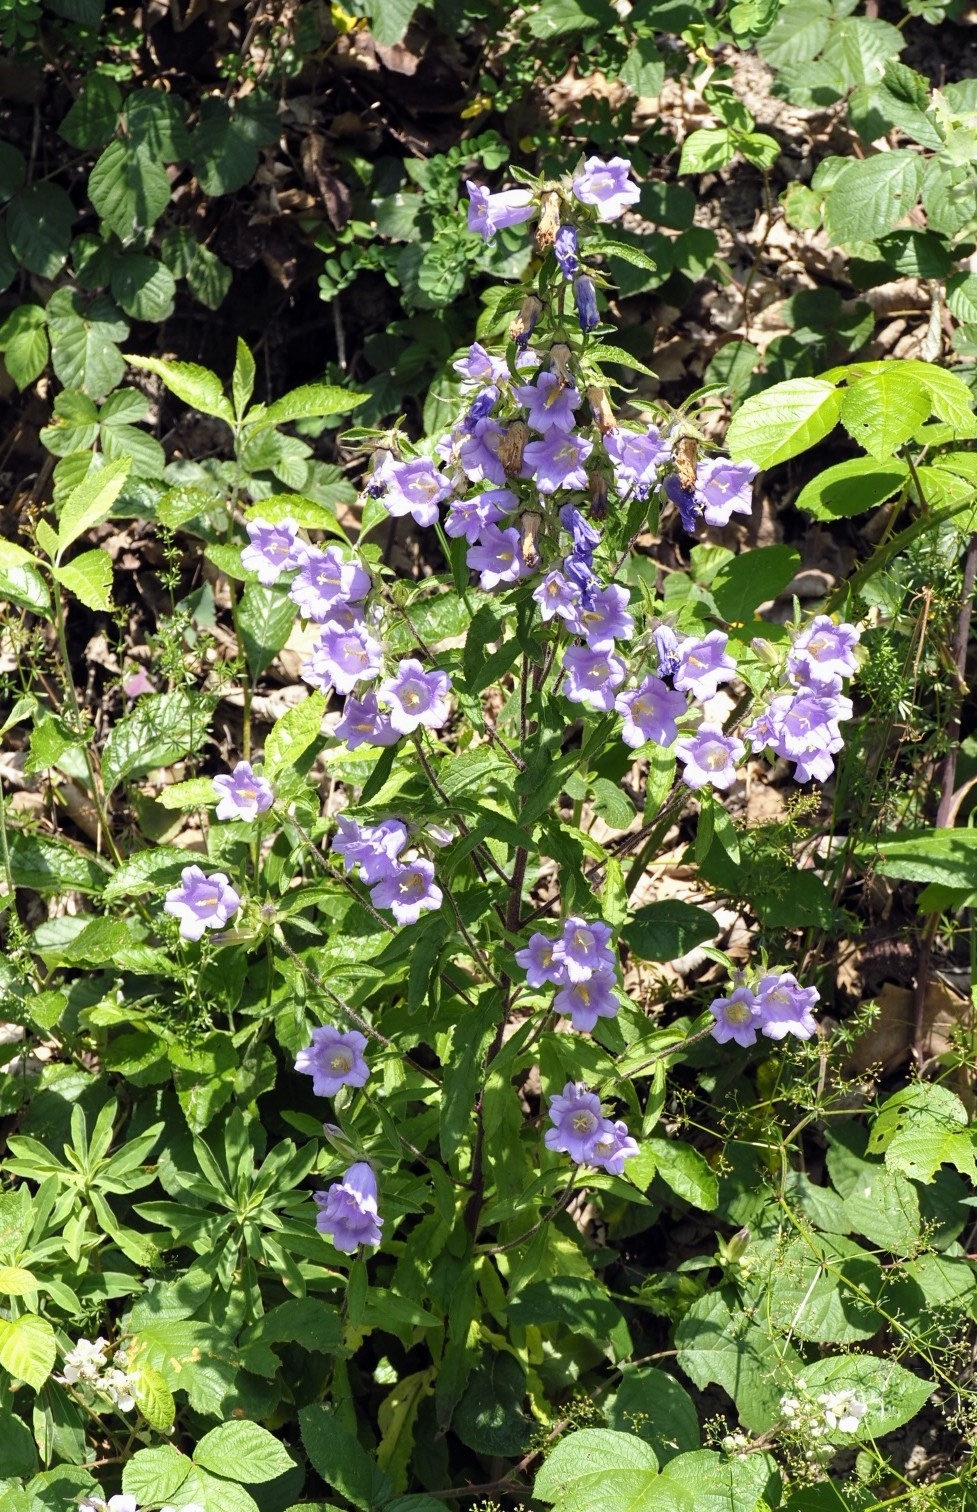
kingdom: Plantae
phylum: Tracheophyta
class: Magnoliopsida
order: Asterales
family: Campanulaceae
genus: Campanula
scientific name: Campanula medium
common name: Canterbury bells
